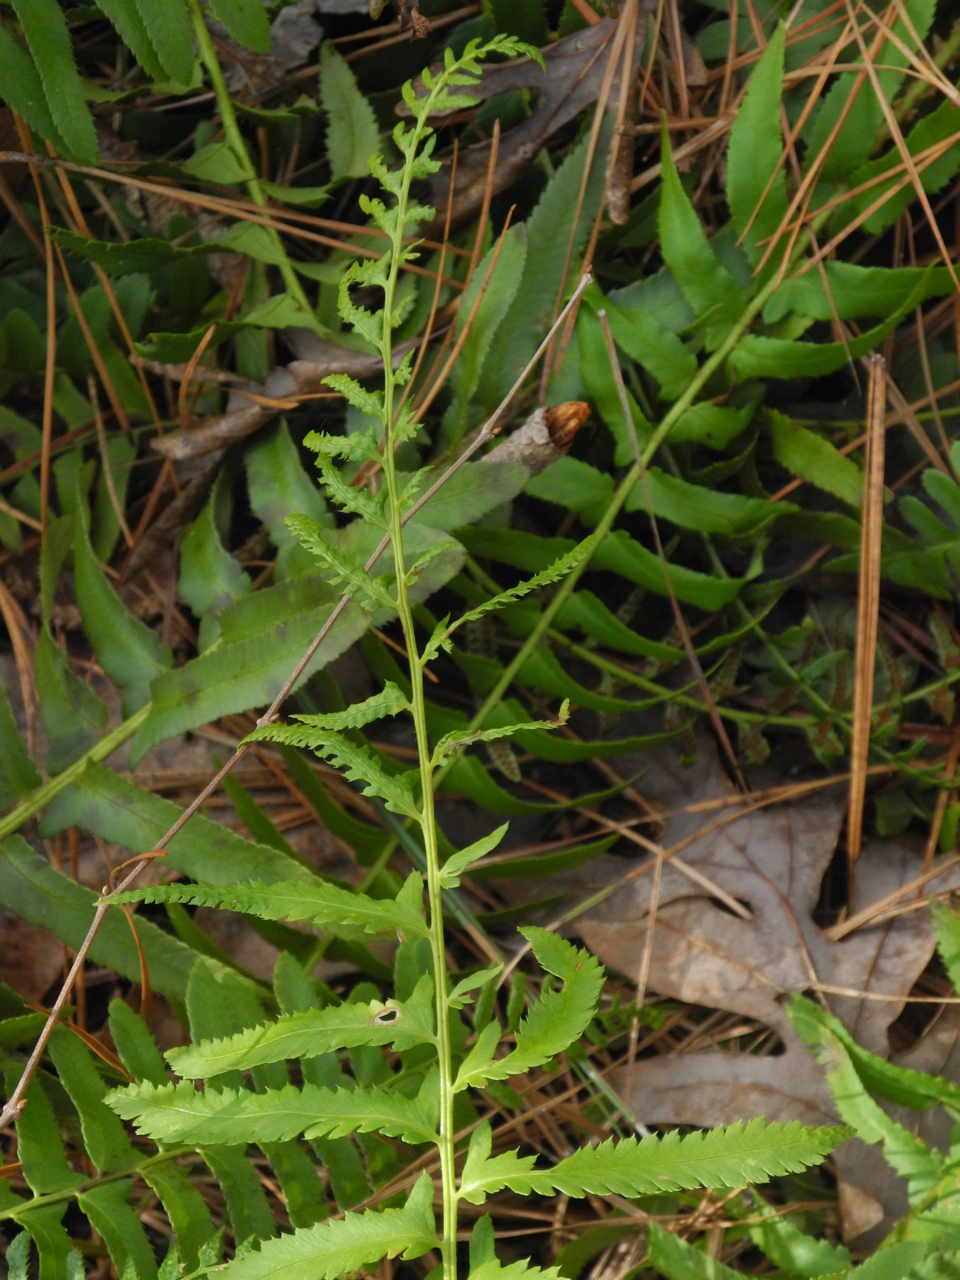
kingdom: Plantae
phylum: Tracheophyta
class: Polypodiopsida
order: Polypodiales
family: Dryopteridaceae
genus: Polystichum
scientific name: Polystichum acrostichoides
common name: Christmas fern
